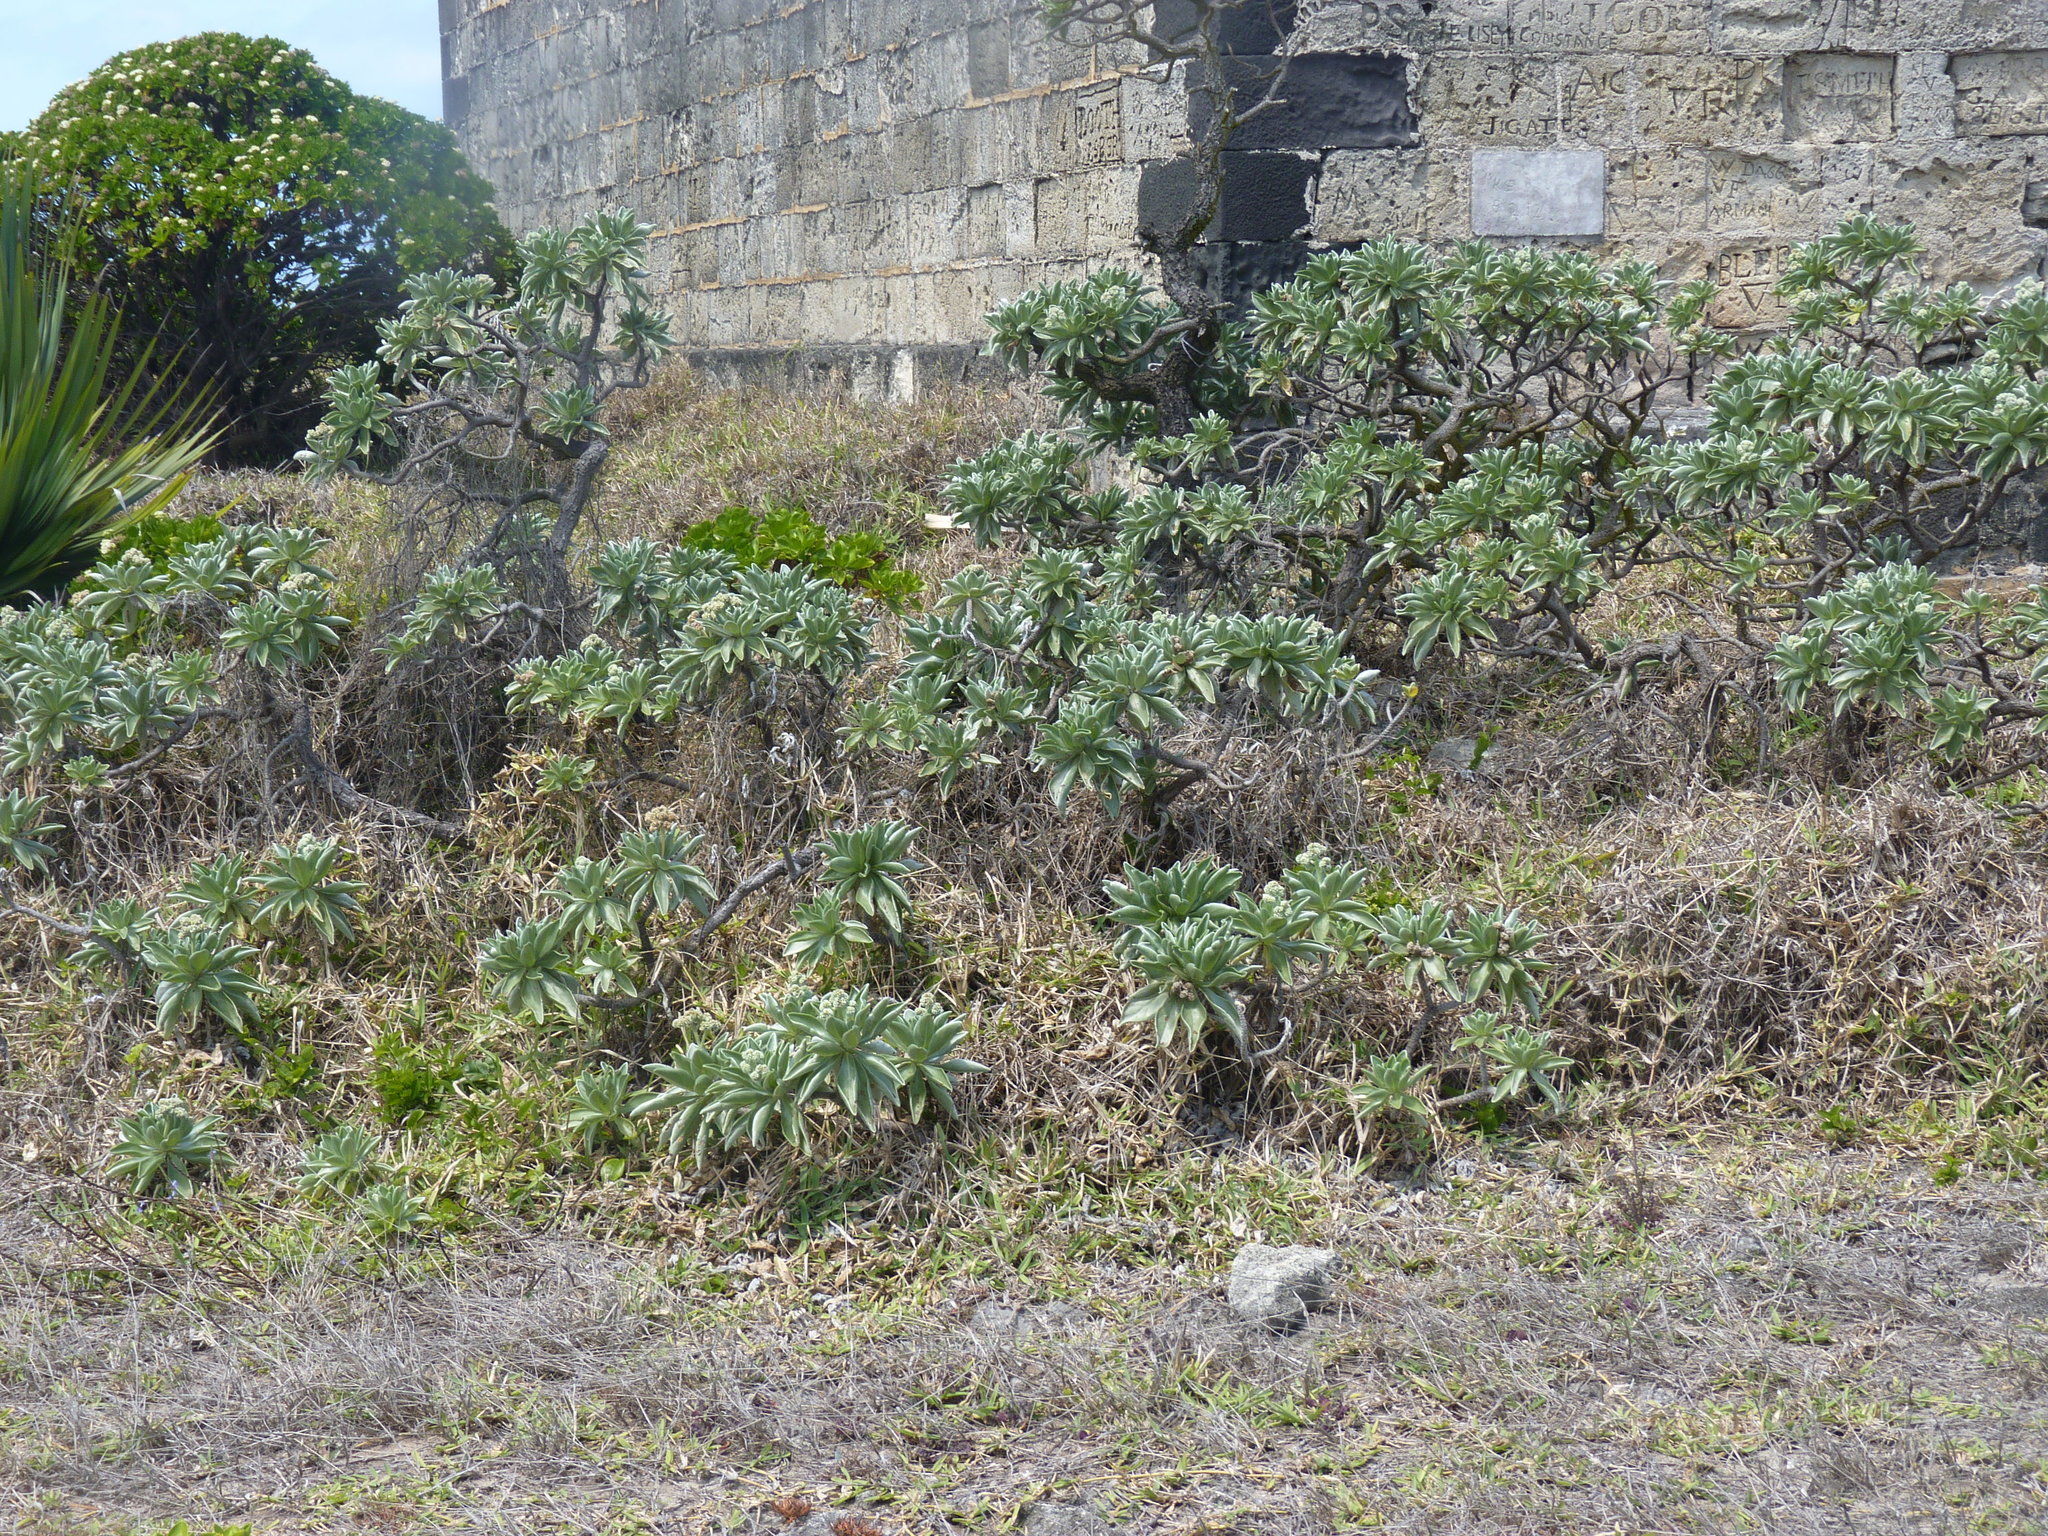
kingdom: Plantae
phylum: Tracheophyta
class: Magnoliopsida
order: Boraginales
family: Heliotropiaceae
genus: Heliotropium
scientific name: Heliotropium velutinum
